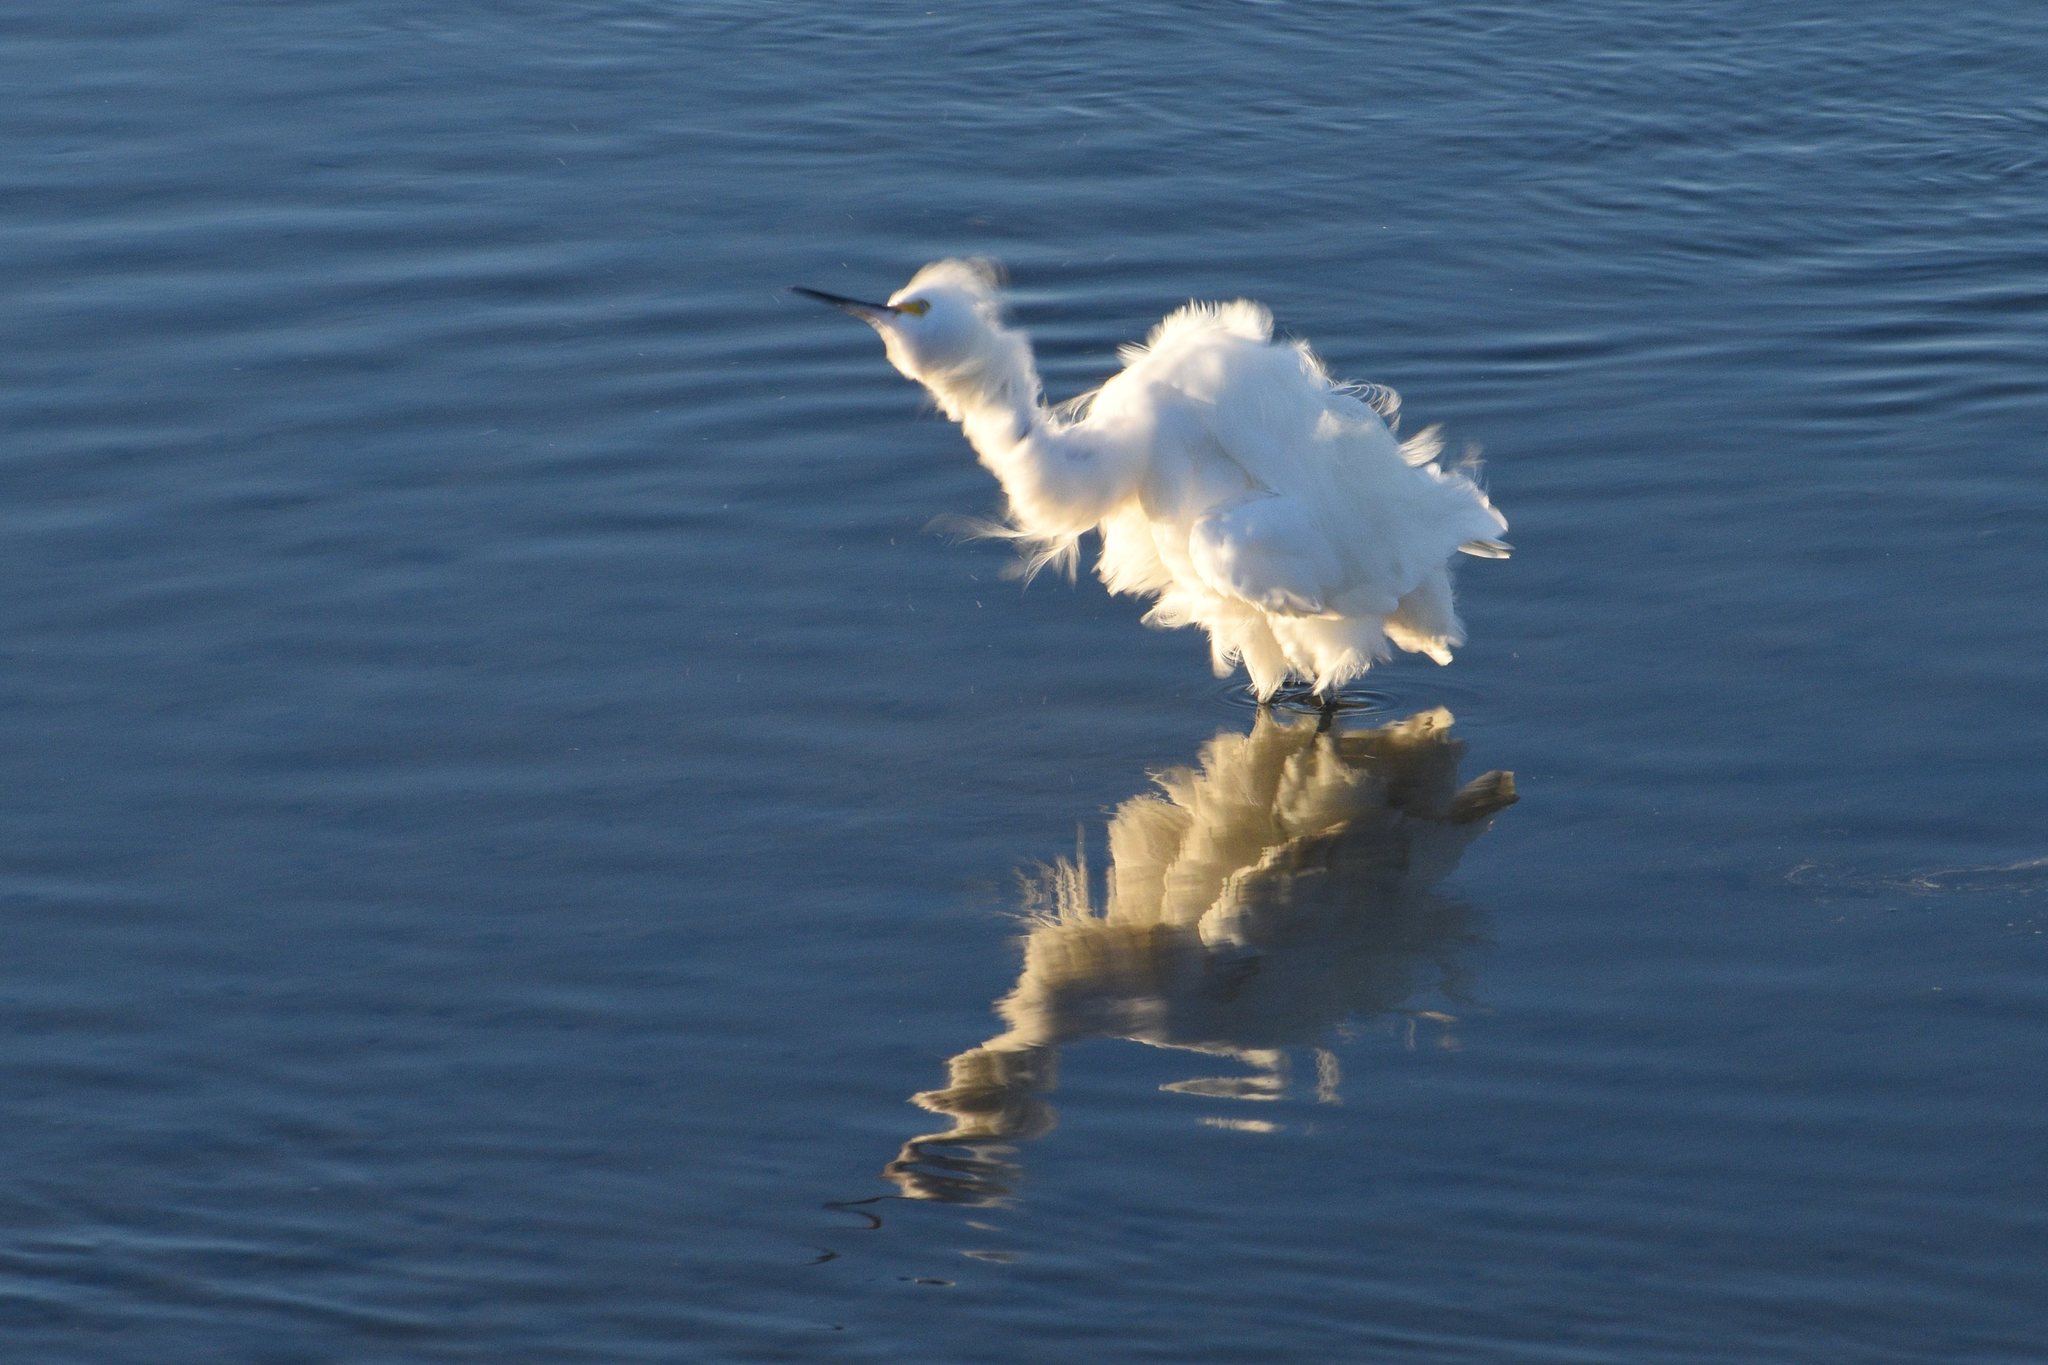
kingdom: Animalia
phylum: Chordata
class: Aves
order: Pelecaniformes
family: Ardeidae
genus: Egretta
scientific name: Egretta thula
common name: Snowy egret
